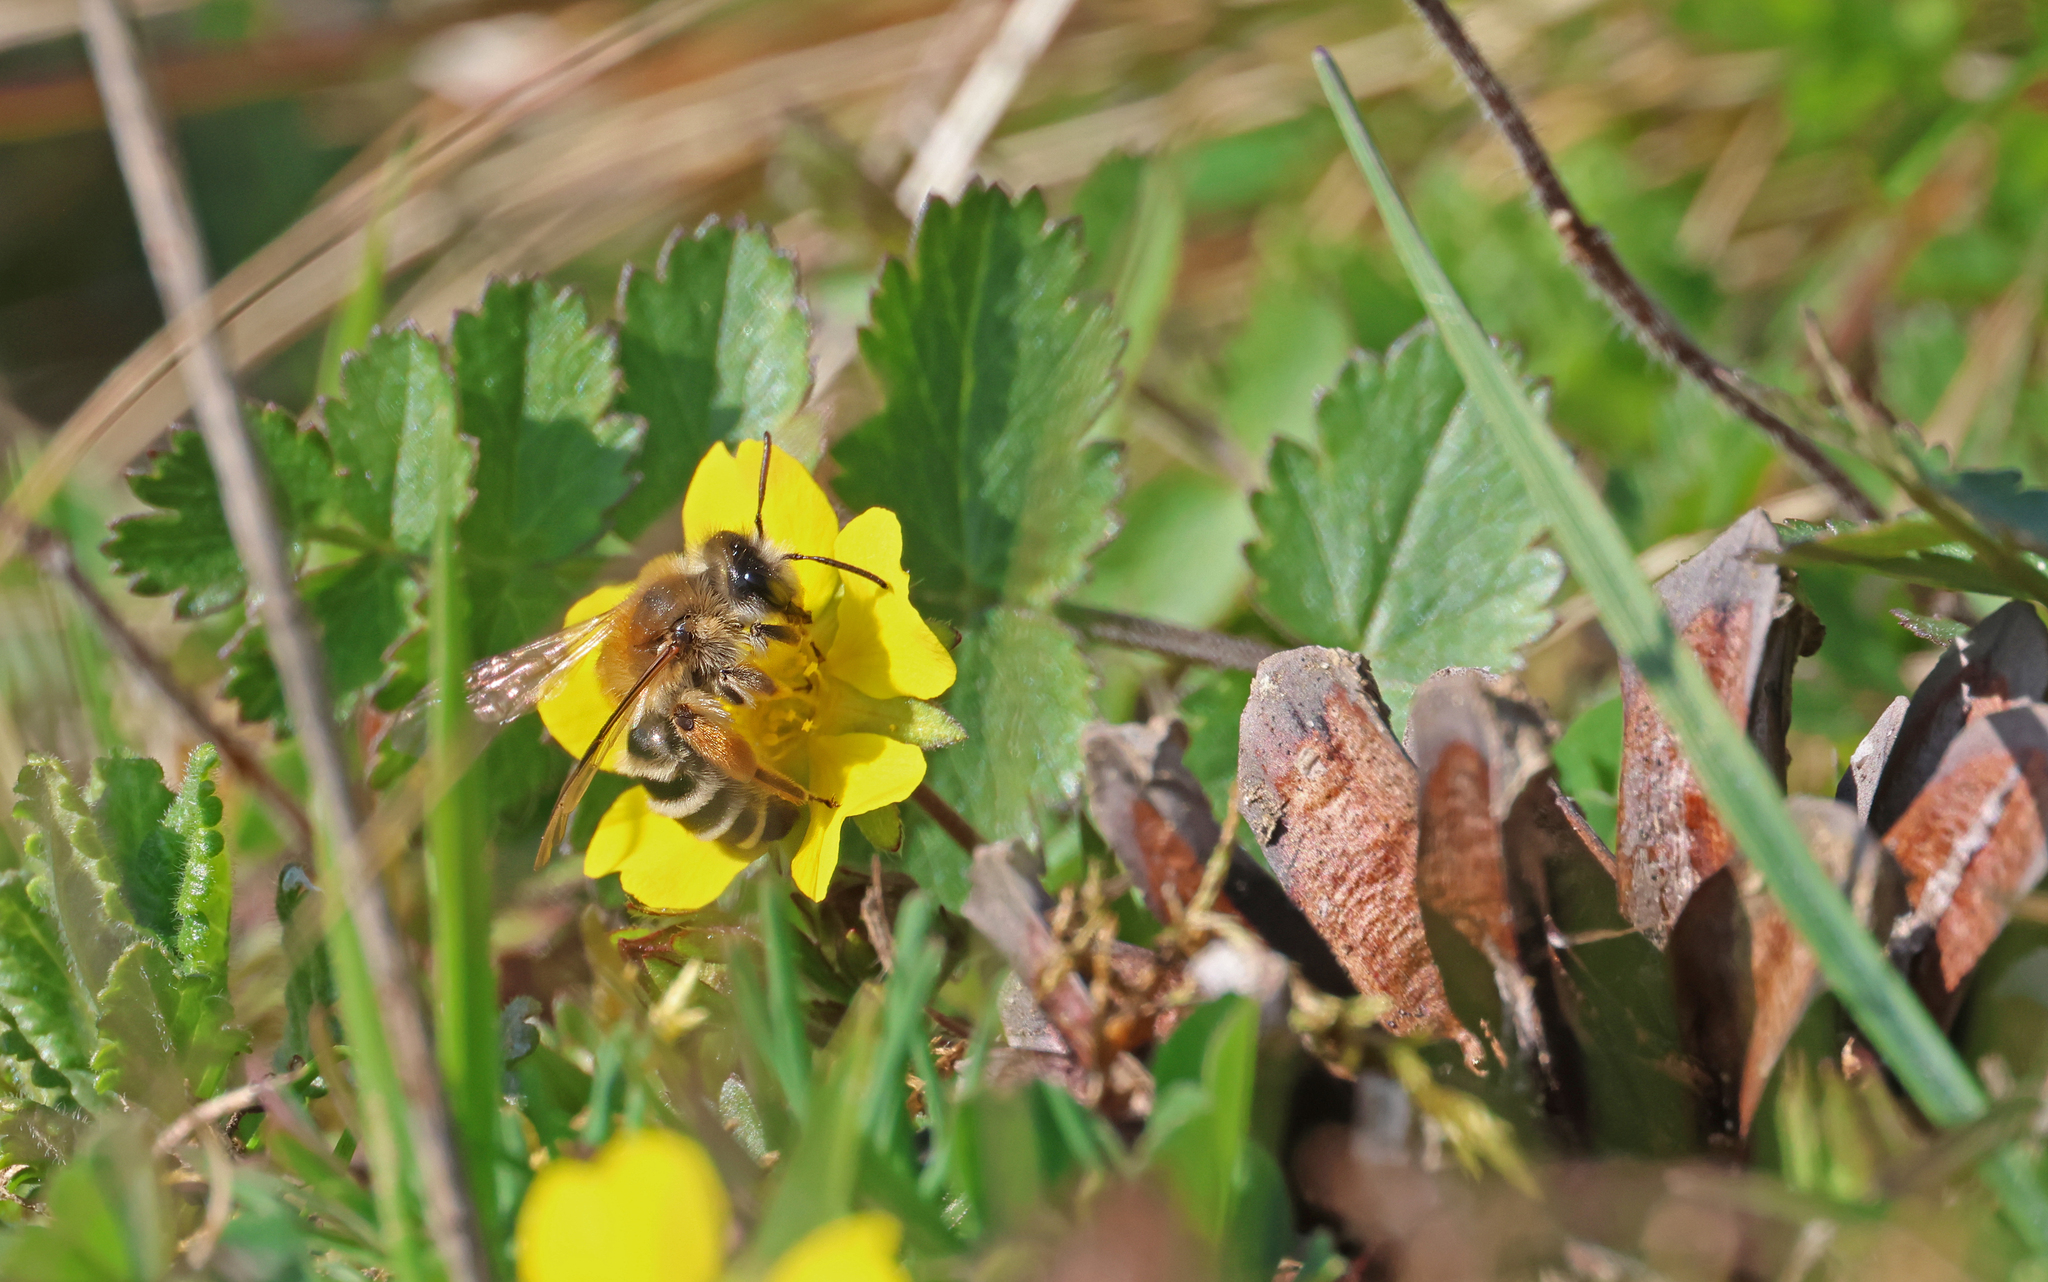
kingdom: Animalia
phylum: Arthropoda
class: Insecta
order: Hymenoptera
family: Andrenidae
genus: Andrena
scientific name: Andrena gravida
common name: White-bellied mining bee
